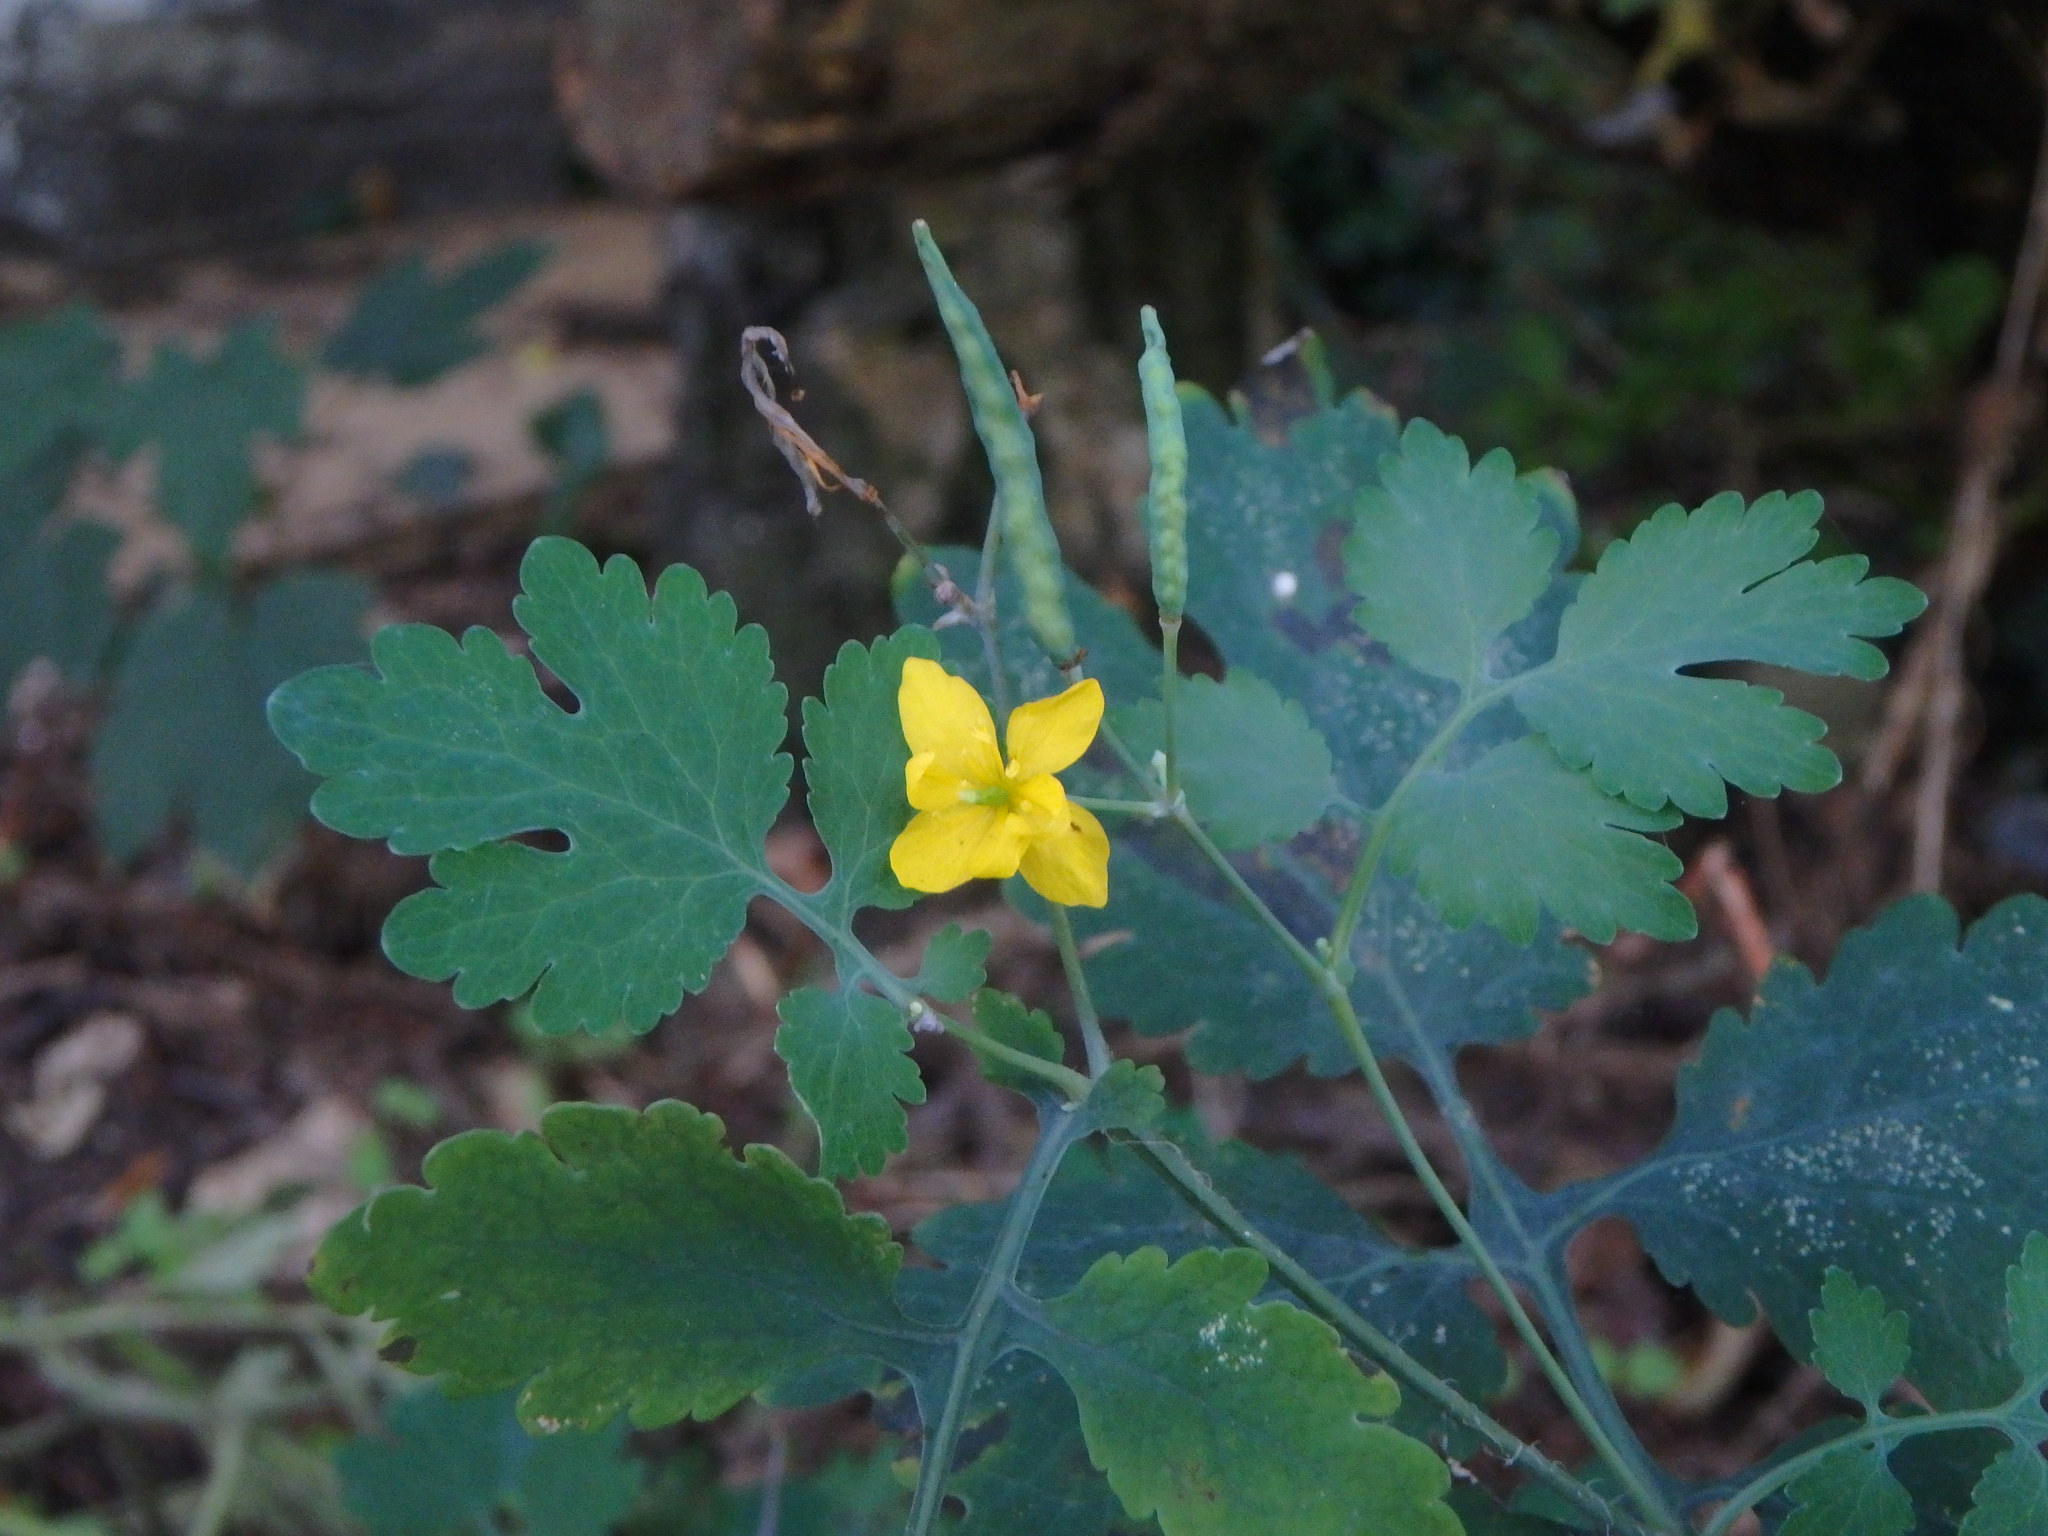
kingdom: Plantae
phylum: Tracheophyta
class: Magnoliopsida
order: Ranunculales
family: Papaveraceae
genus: Chelidonium
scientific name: Chelidonium majus
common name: Greater celandine
